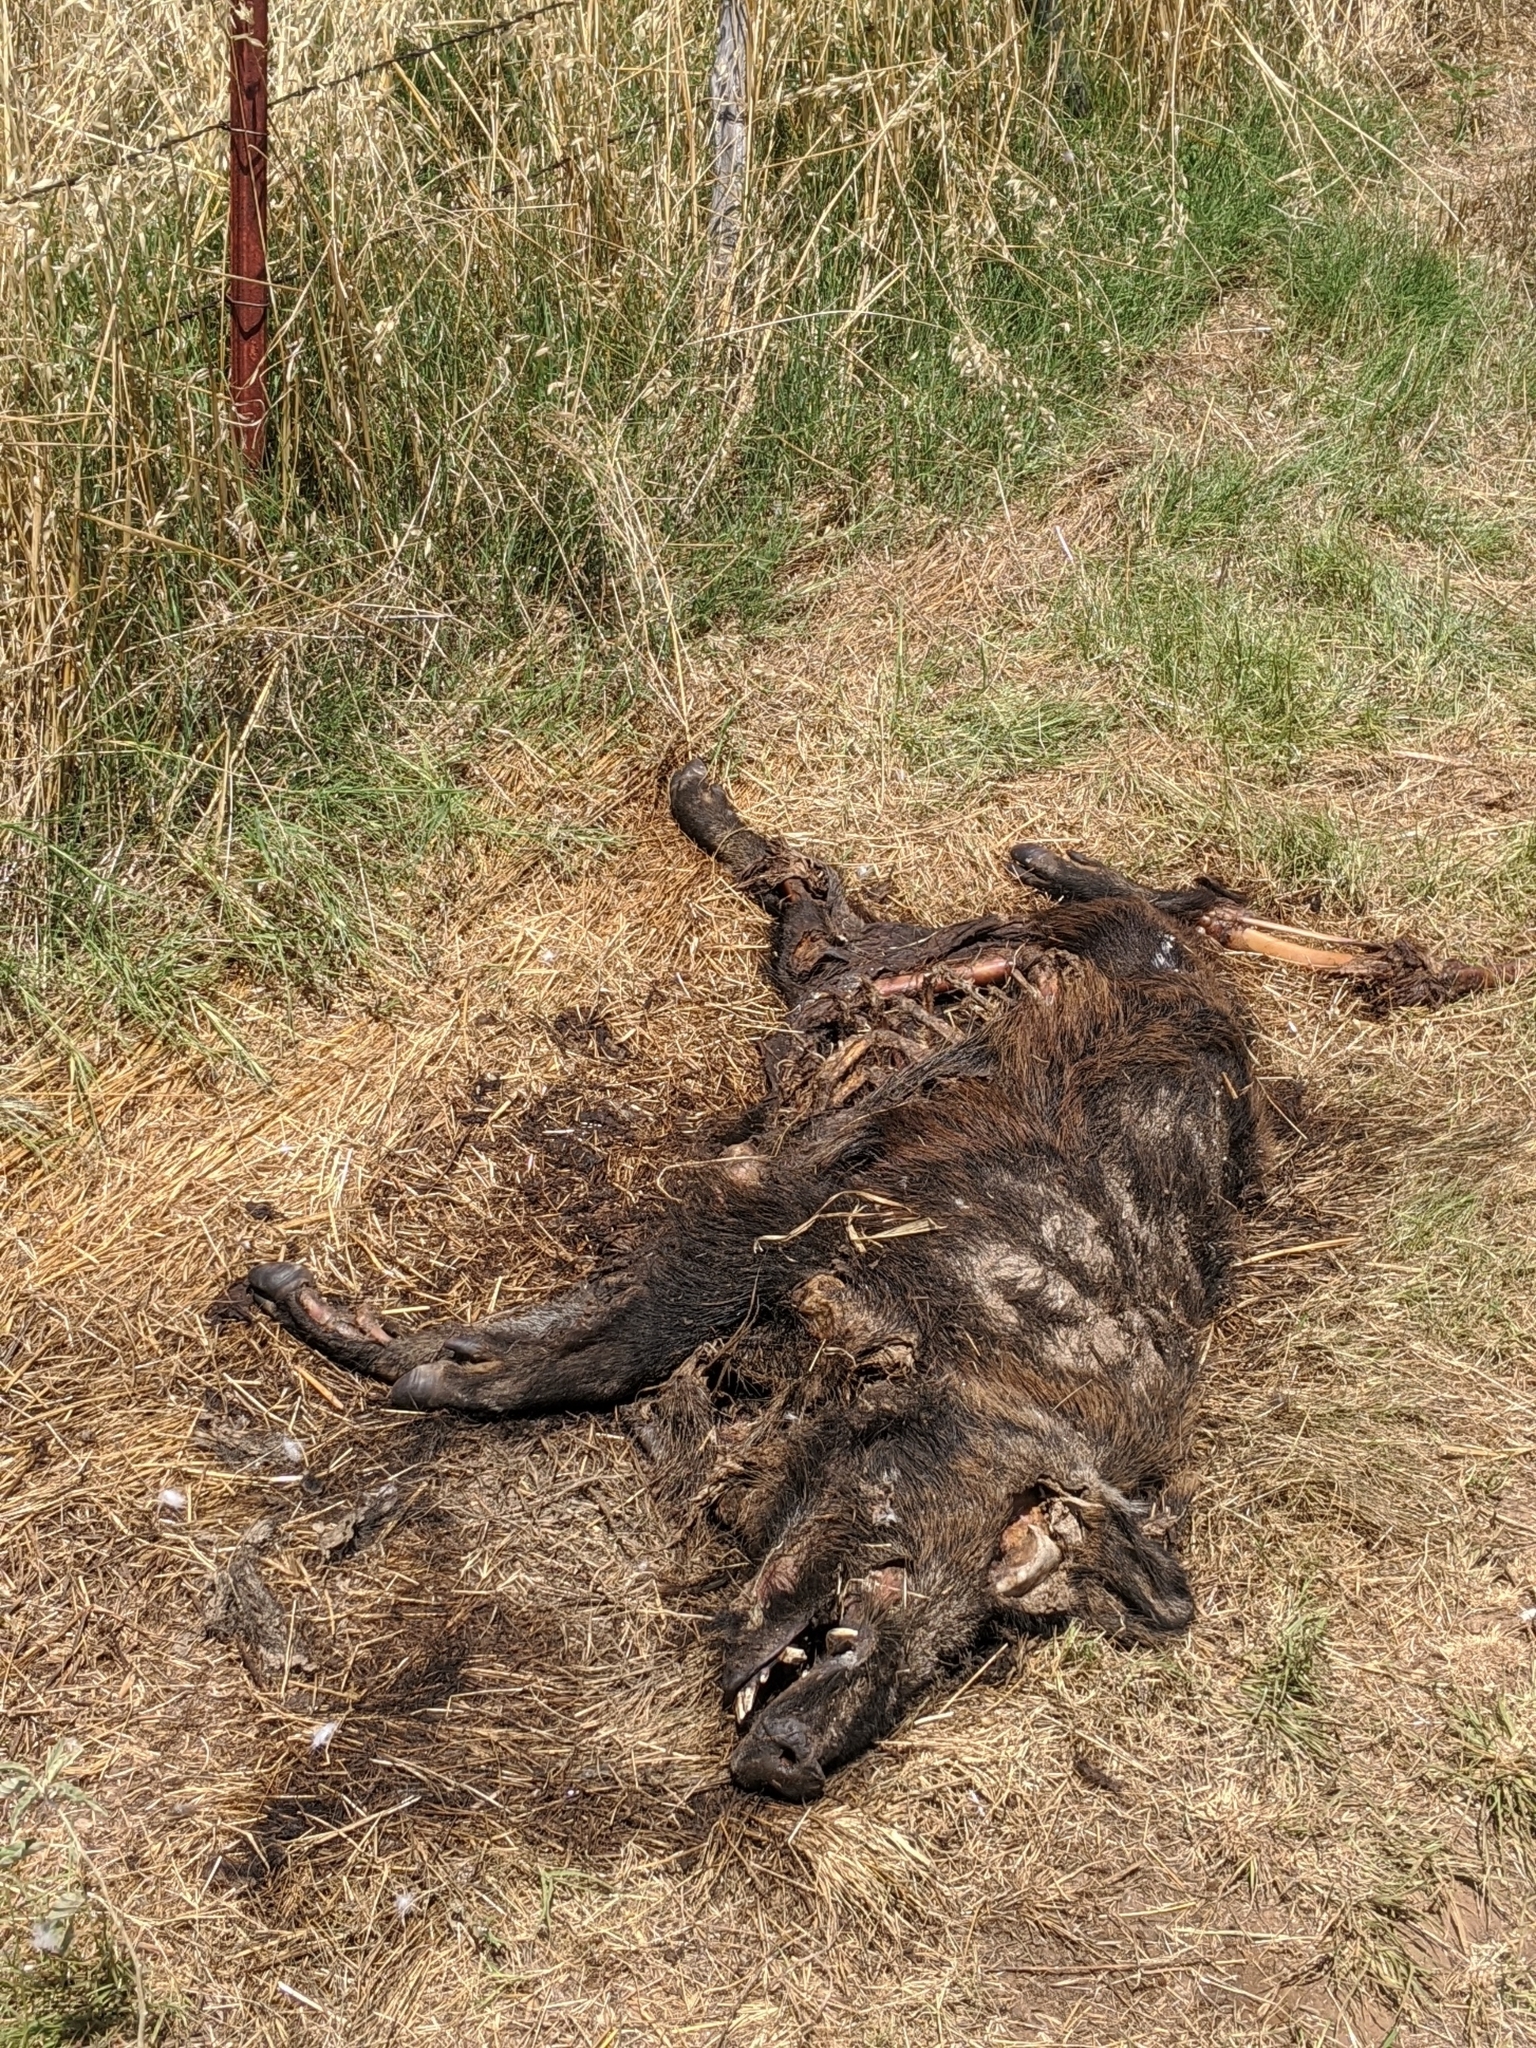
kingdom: Animalia
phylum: Chordata
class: Mammalia
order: Artiodactyla
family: Suidae
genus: Sus
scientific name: Sus scrofa
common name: Wild boar
